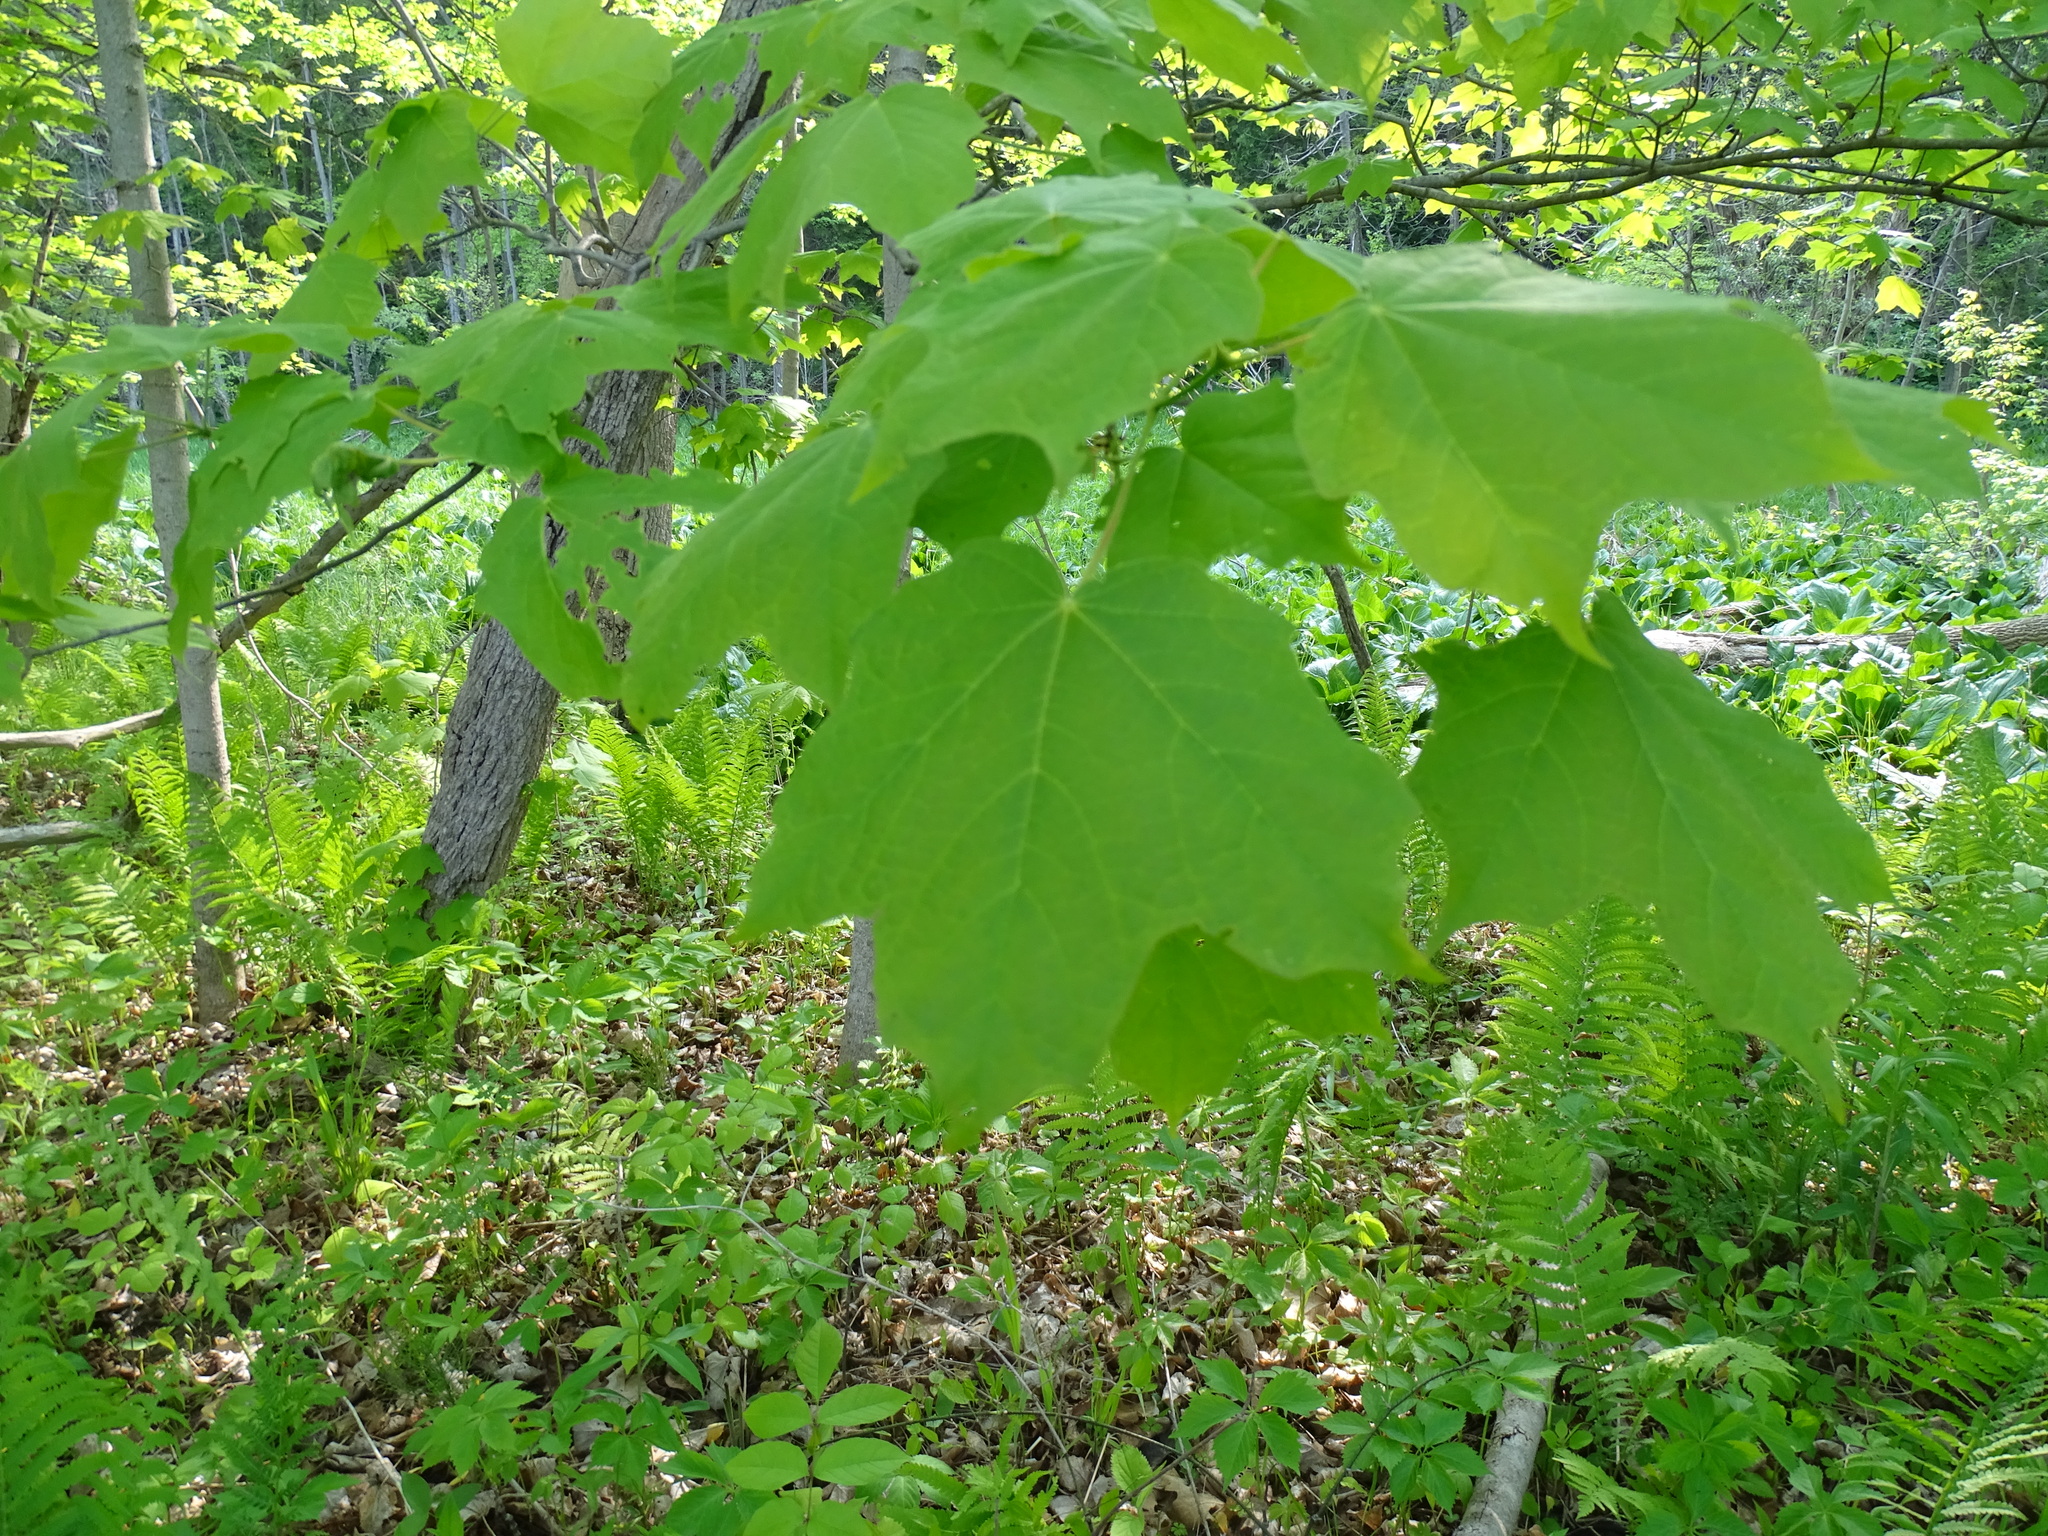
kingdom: Plantae
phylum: Tracheophyta
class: Magnoliopsida
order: Sapindales
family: Sapindaceae
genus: Acer
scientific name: Acer nigrum
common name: Black maple
